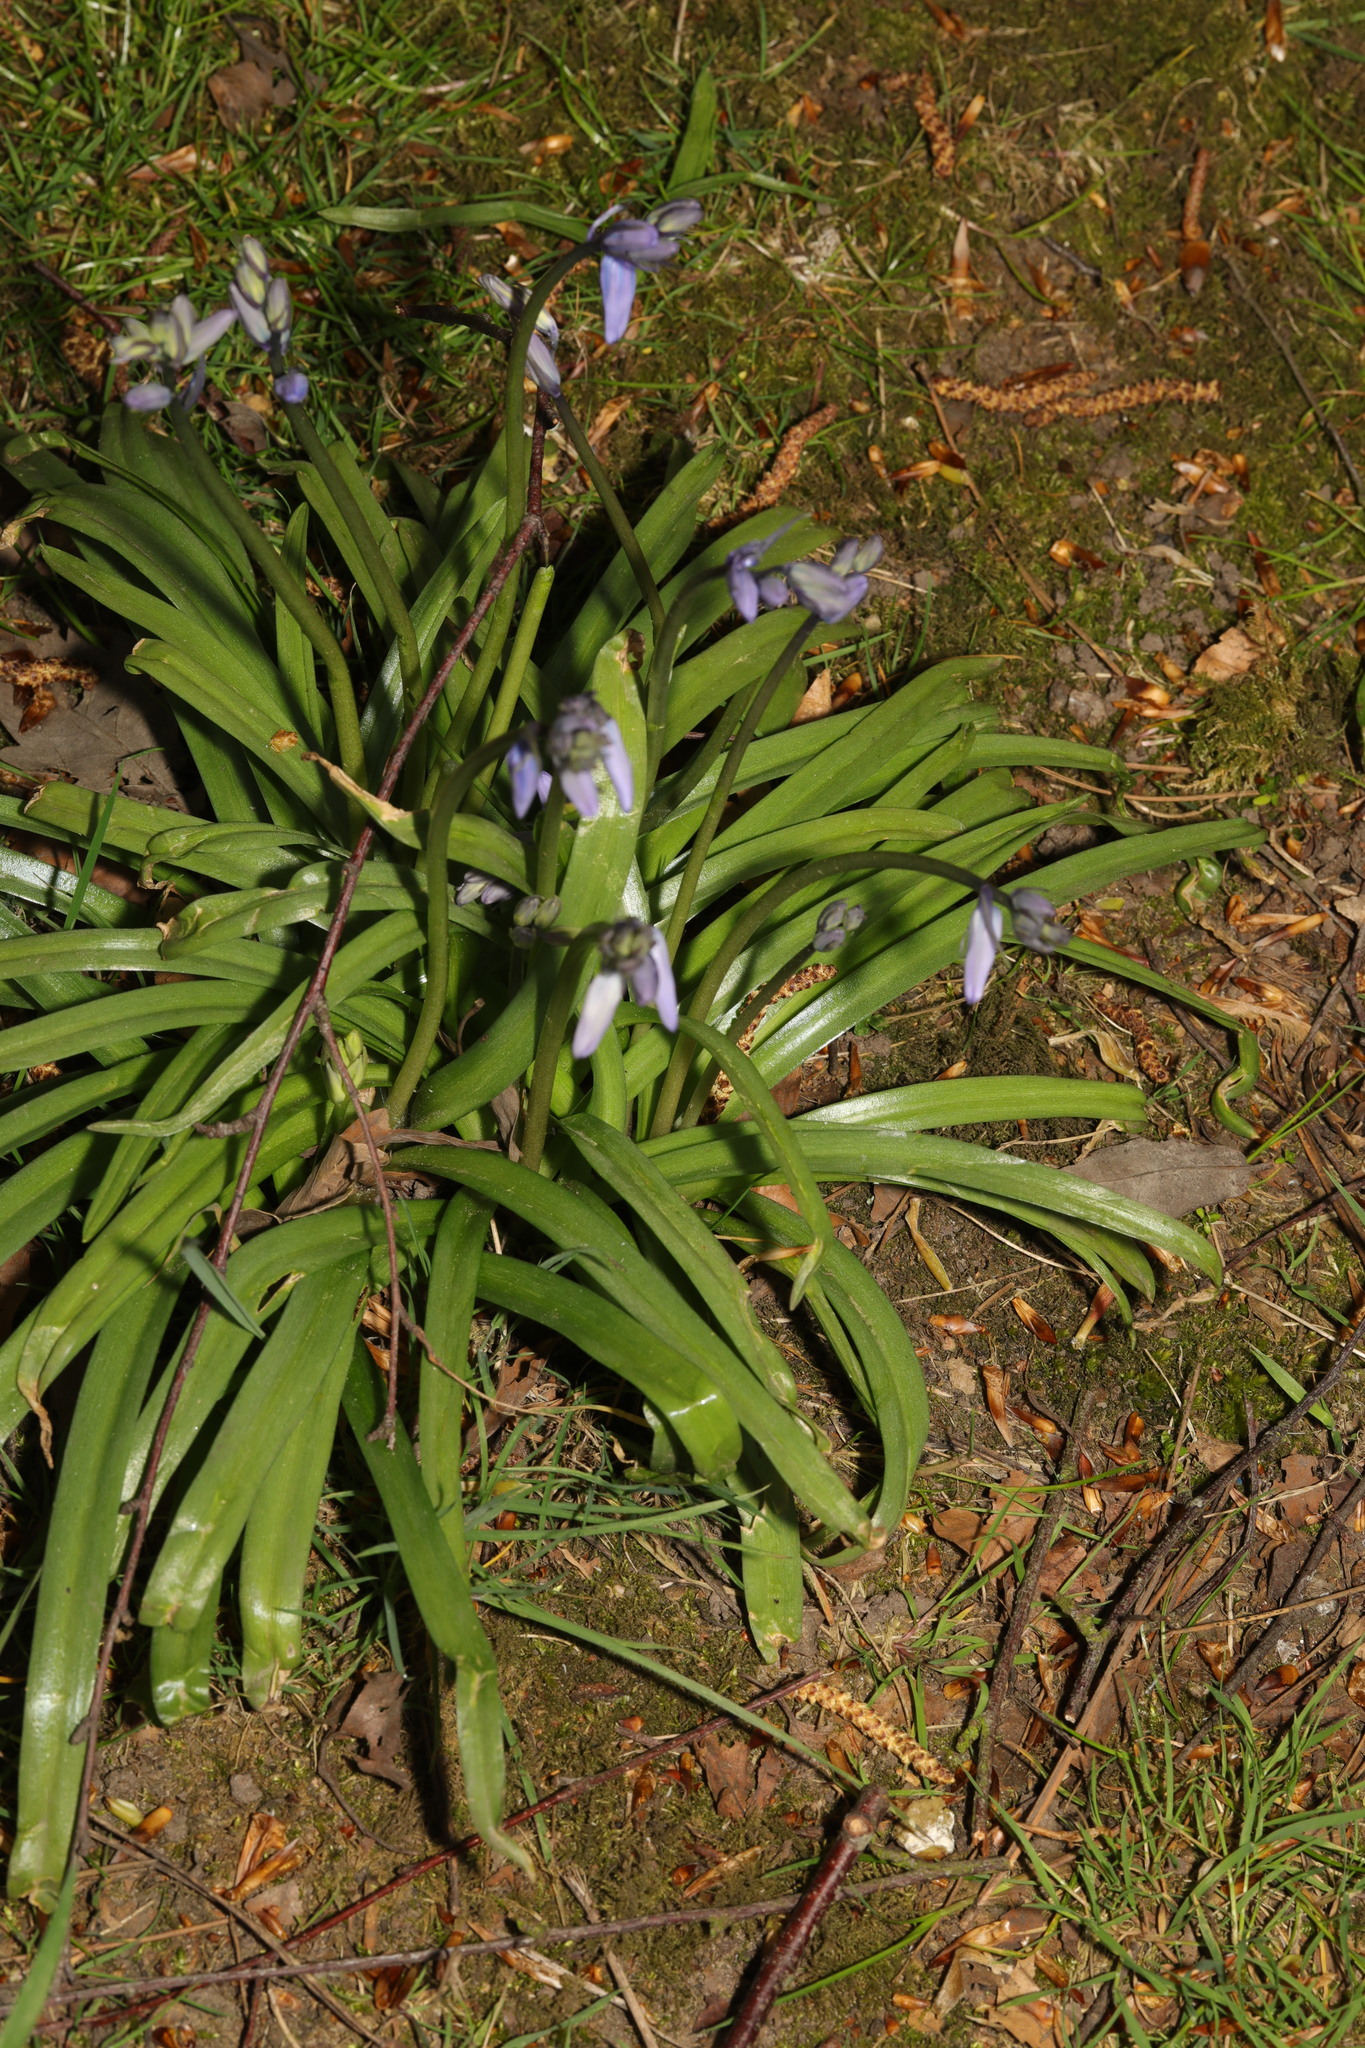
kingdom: Plantae
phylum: Tracheophyta
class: Liliopsida
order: Asparagales
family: Asparagaceae
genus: Hyacinthoides
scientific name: Hyacinthoides massartiana
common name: Hyacinthoides
